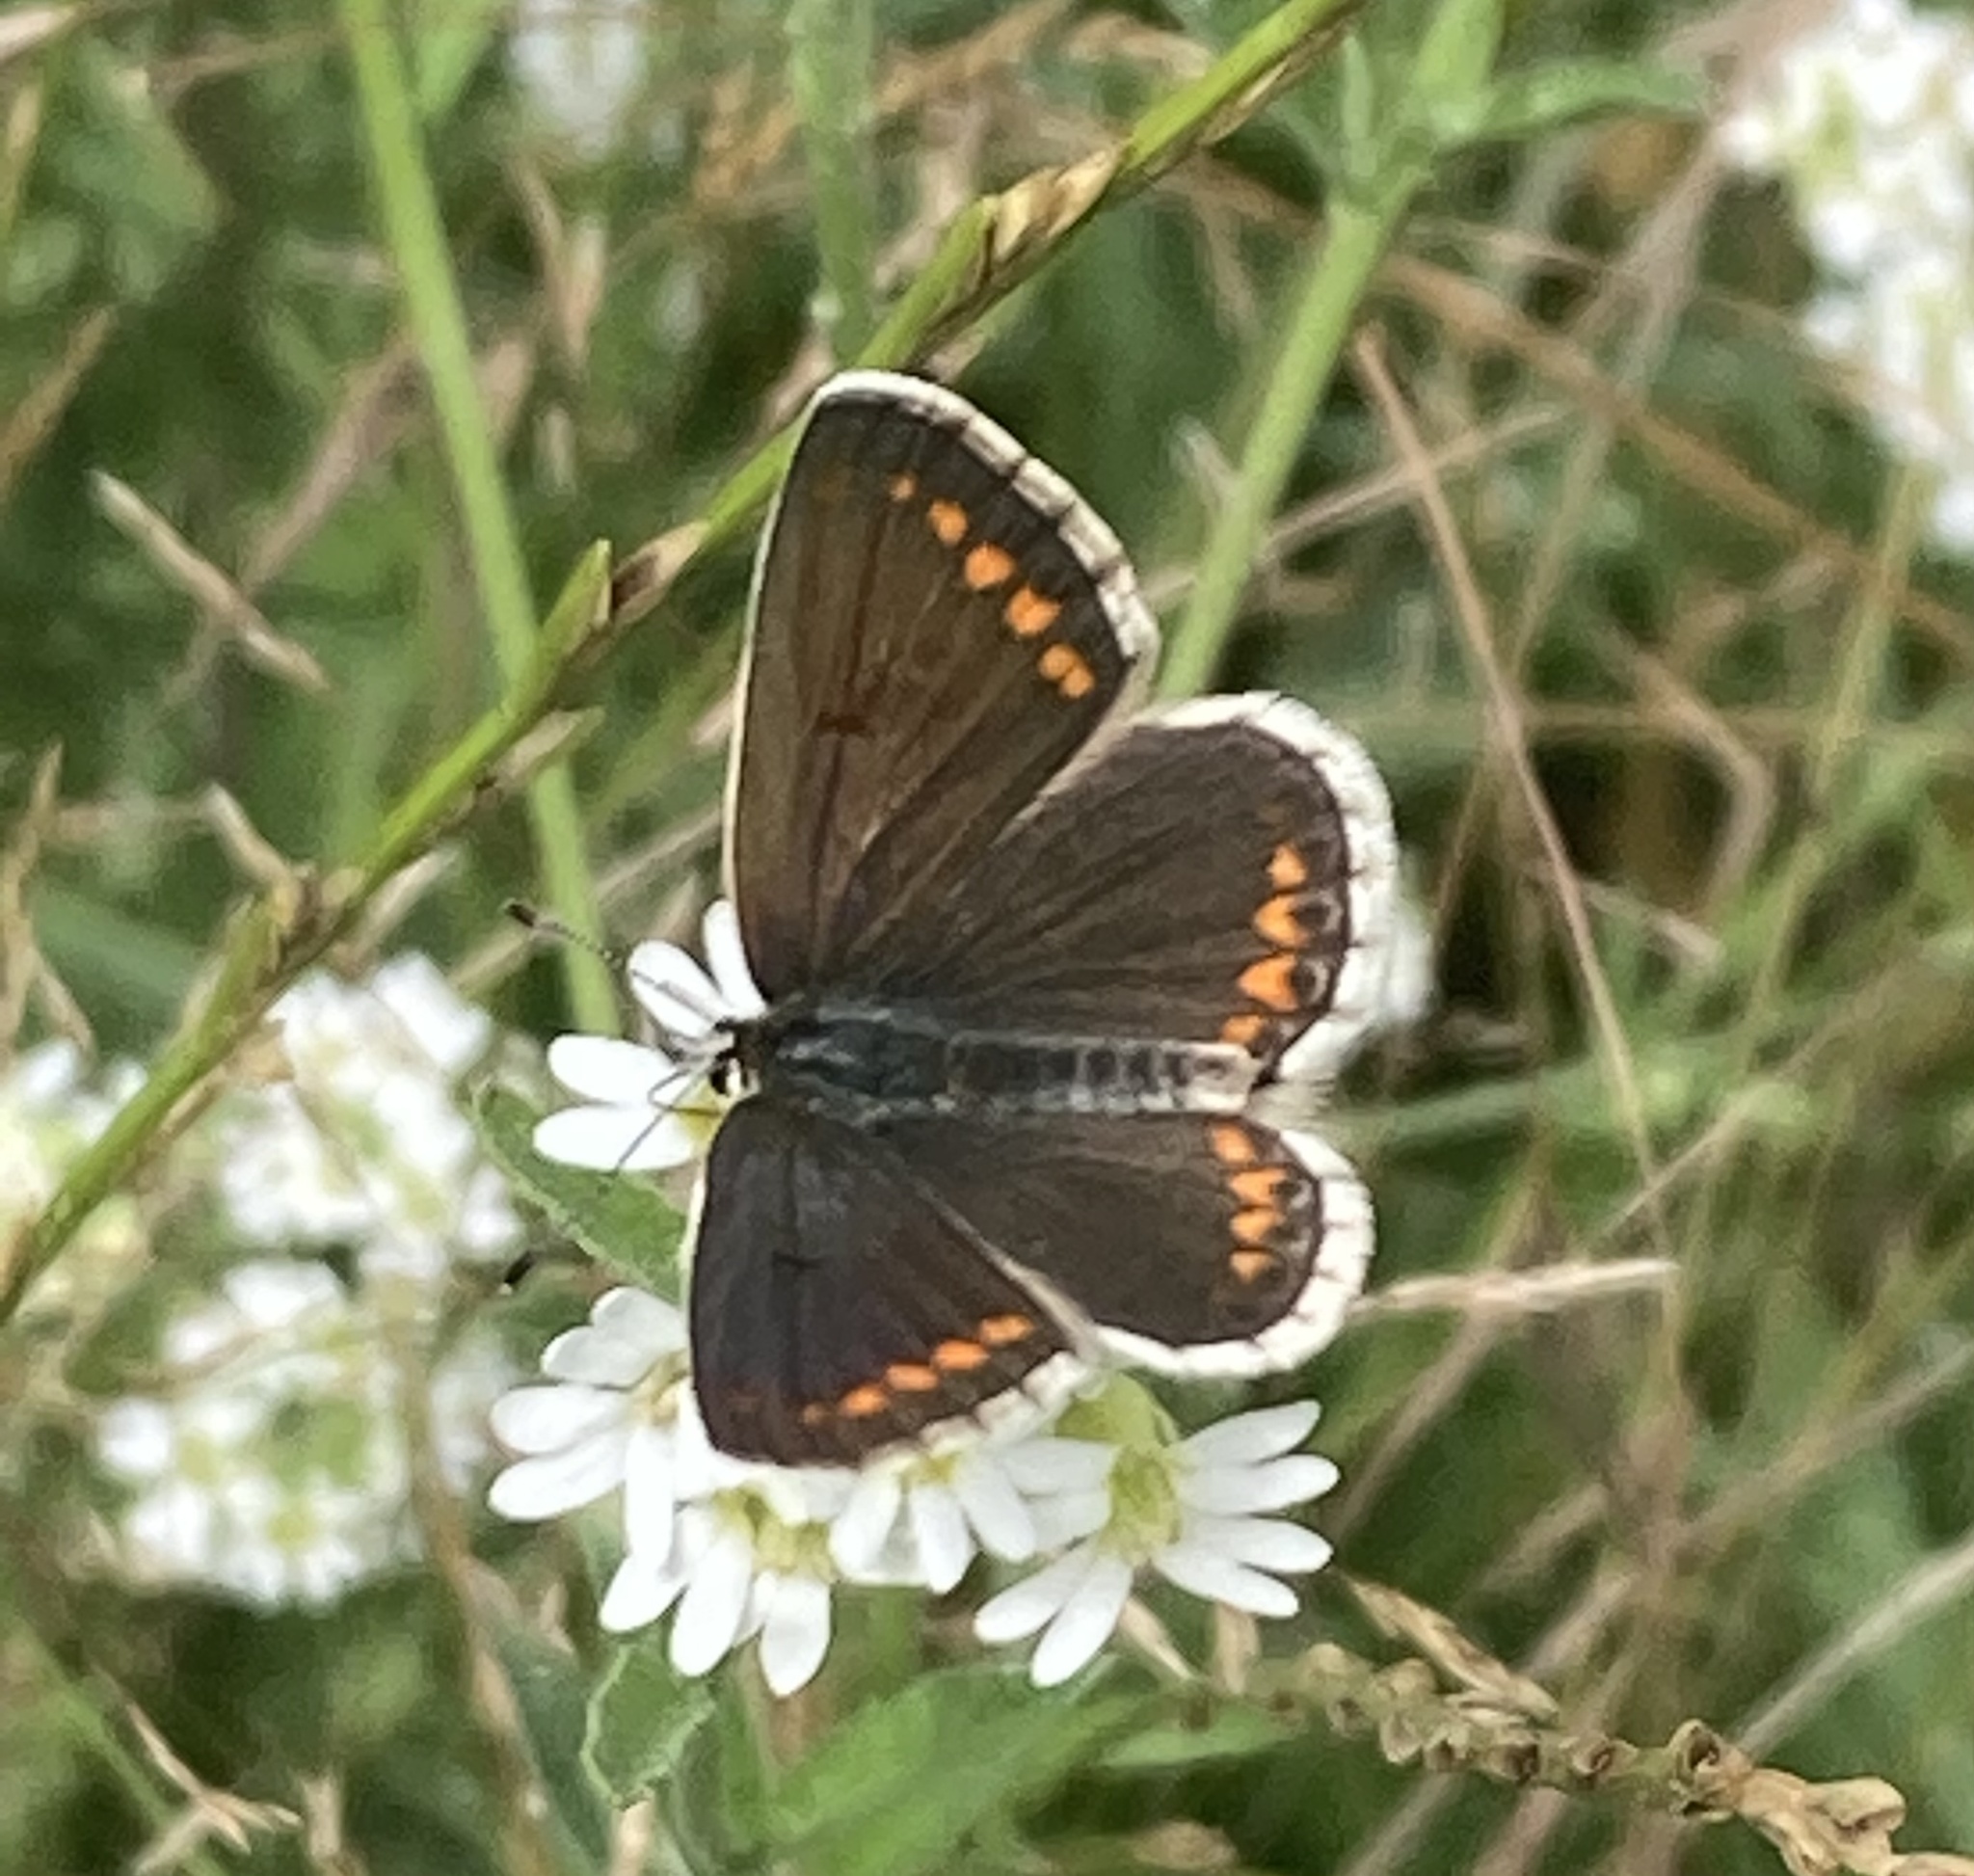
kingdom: Animalia
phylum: Arthropoda
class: Insecta
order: Lepidoptera
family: Lycaenidae
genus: Aricia
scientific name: Aricia agestis
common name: Brown argus
